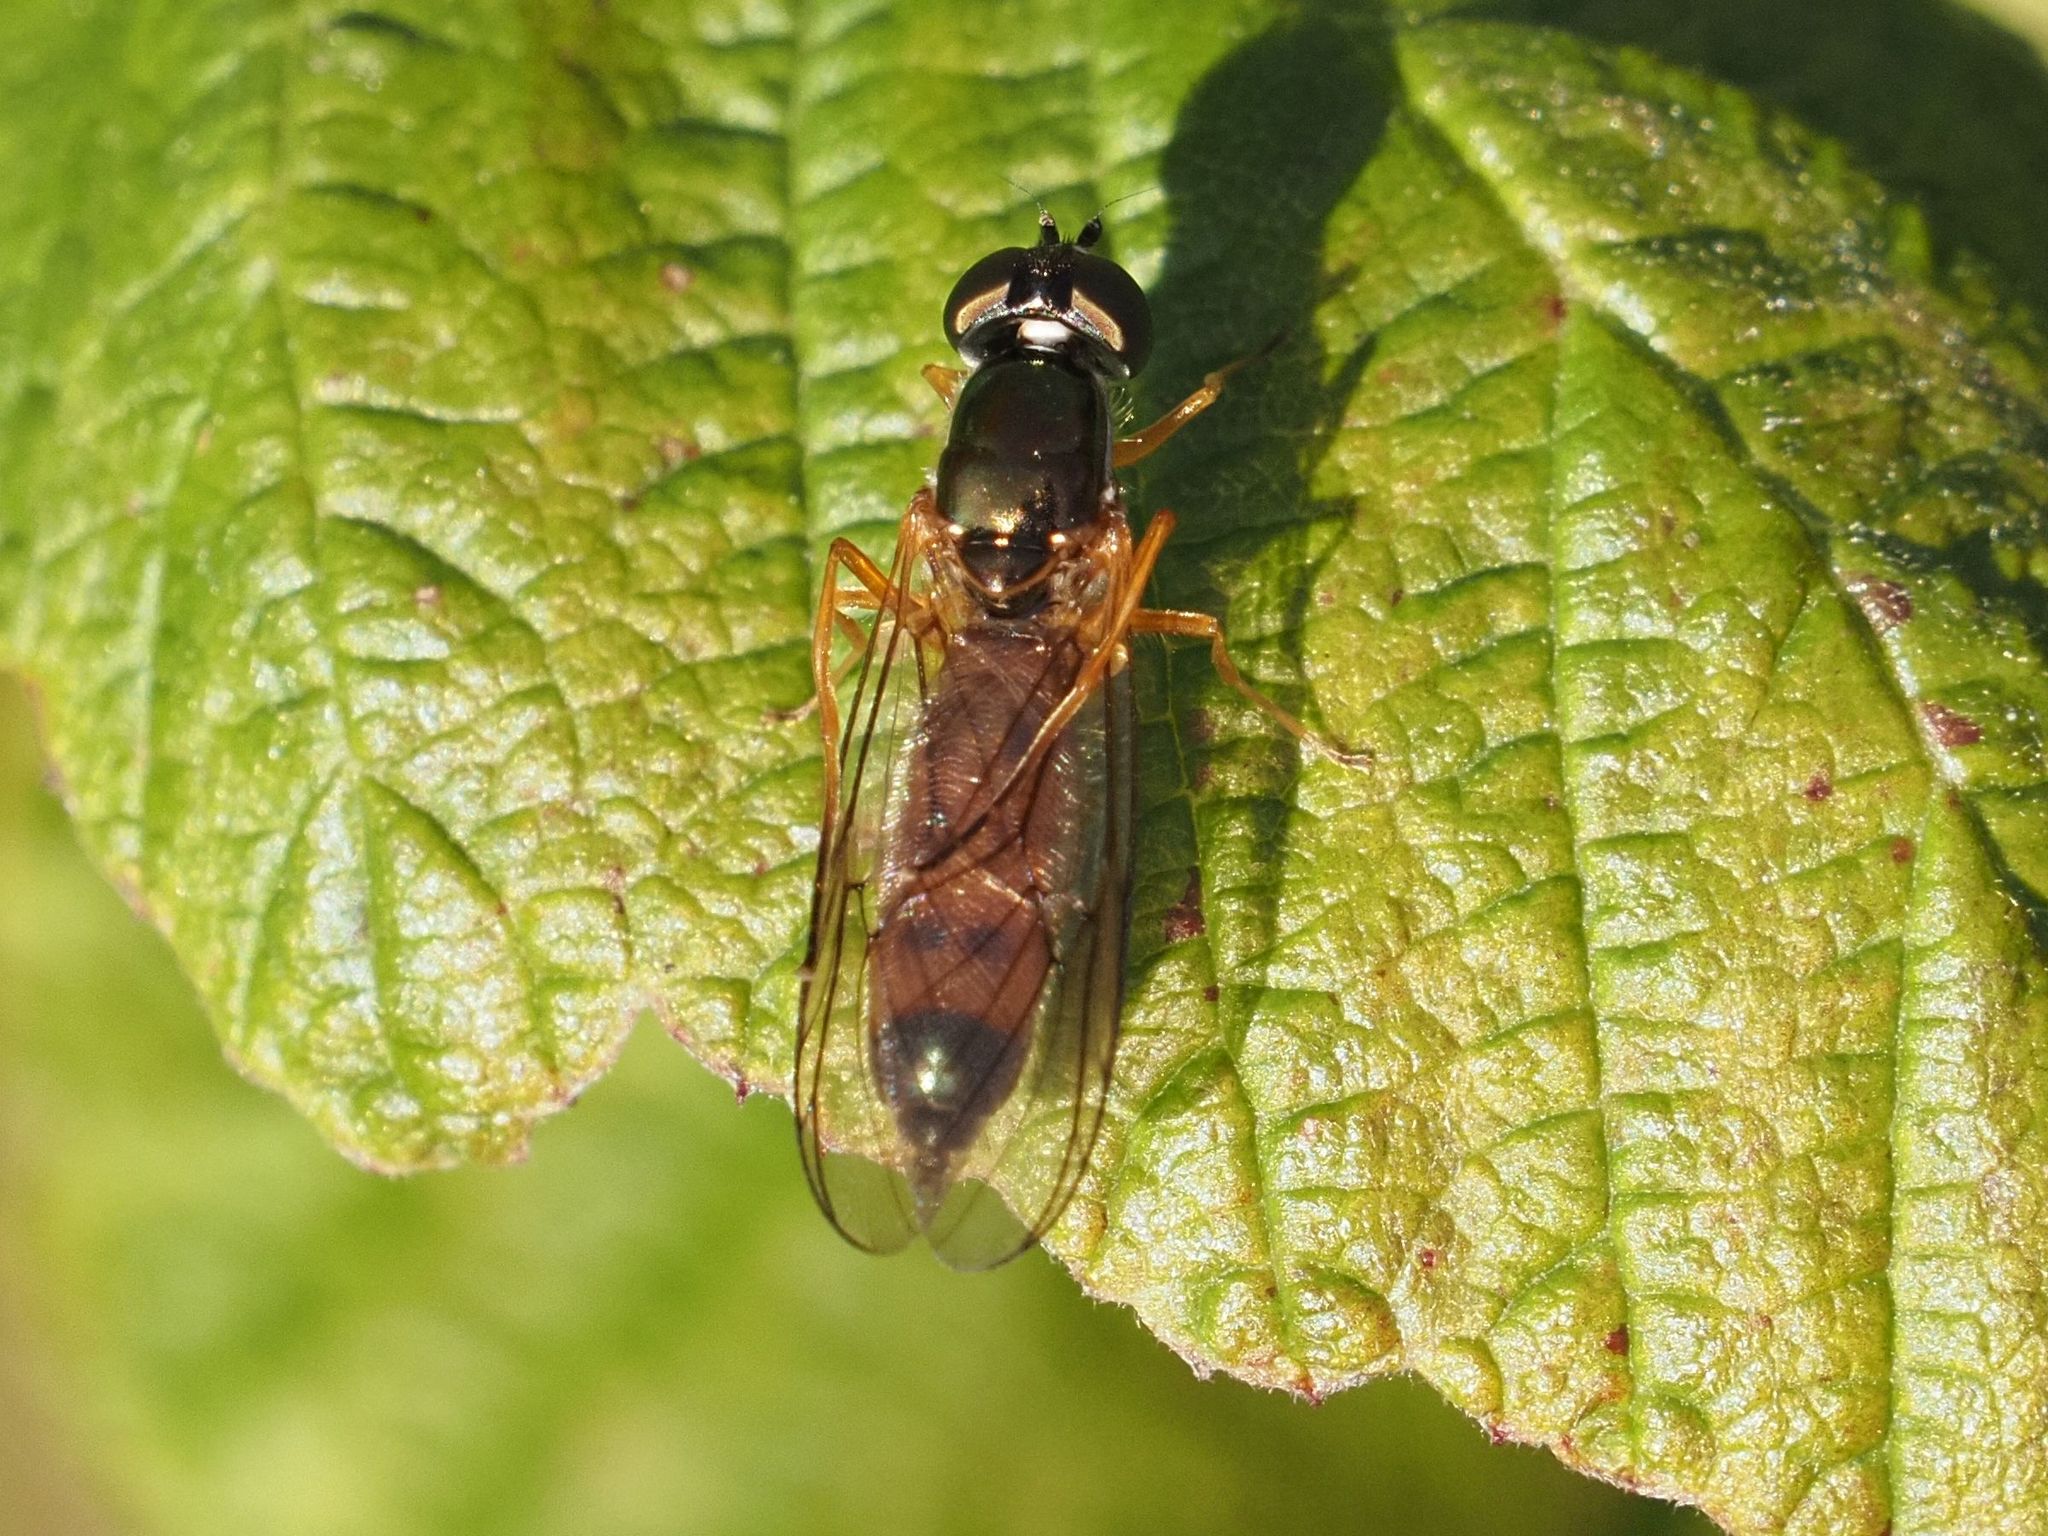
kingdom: Animalia
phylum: Arthropoda
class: Insecta
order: Diptera
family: Stratiomyidae
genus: Sargus
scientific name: Sargus bipunctatus
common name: Twin-spot centurion
